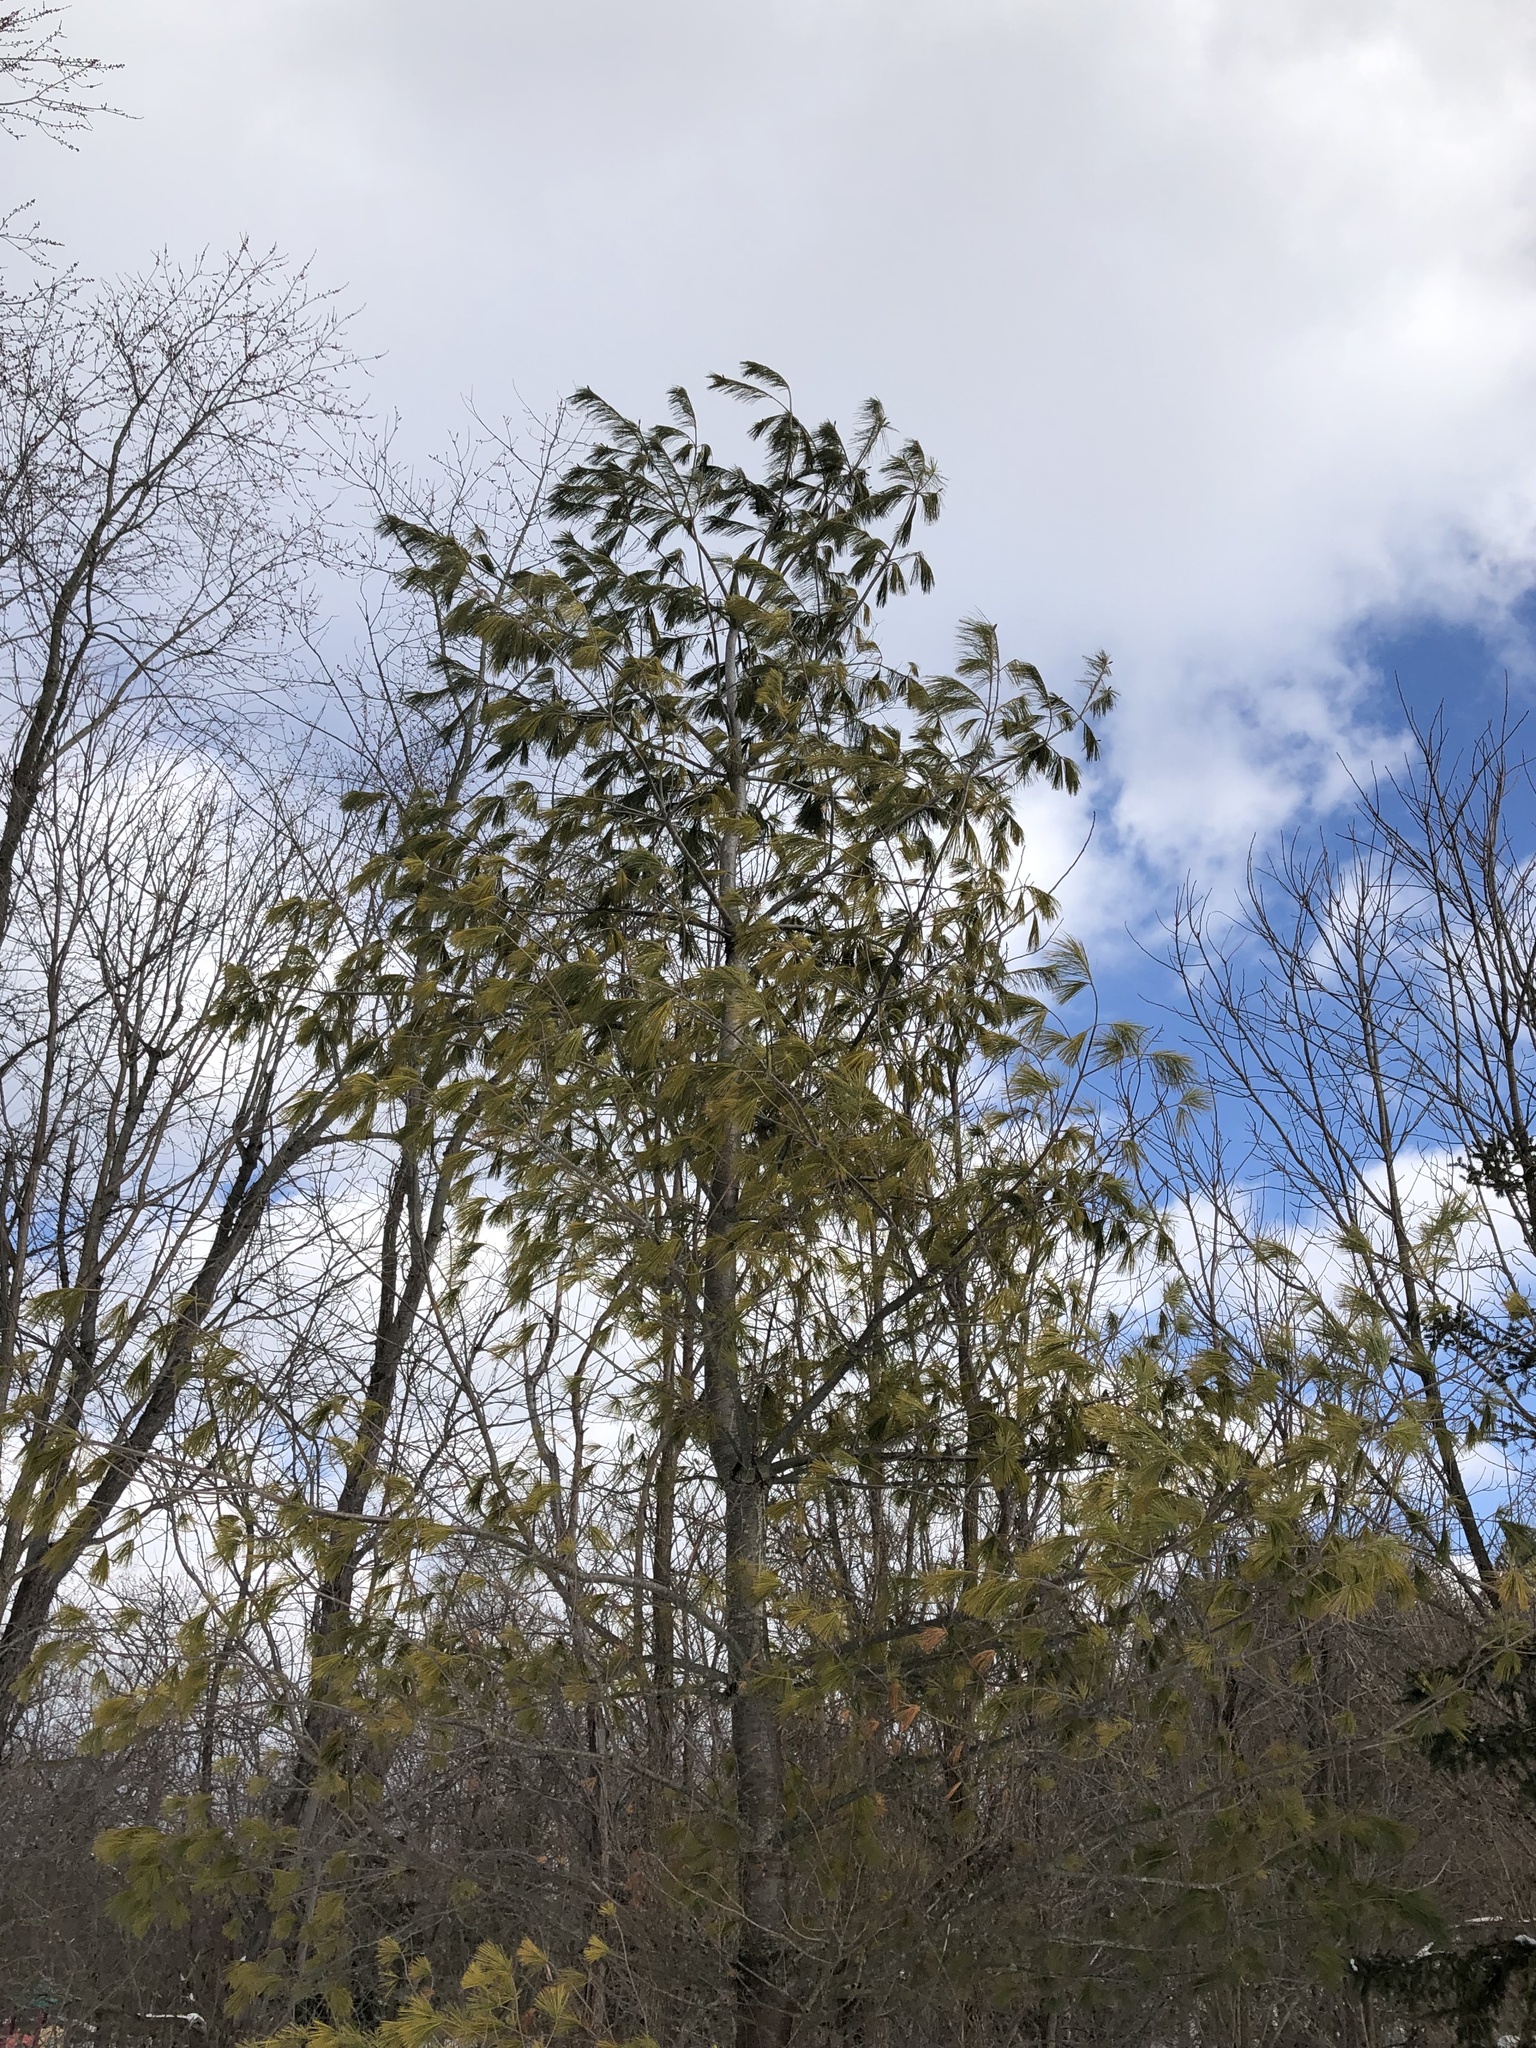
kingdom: Plantae
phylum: Tracheophyta
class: Pinopsida
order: Pinales
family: Pinaceae
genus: Pinus
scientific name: Pinus strobus
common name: Weymouth pine
